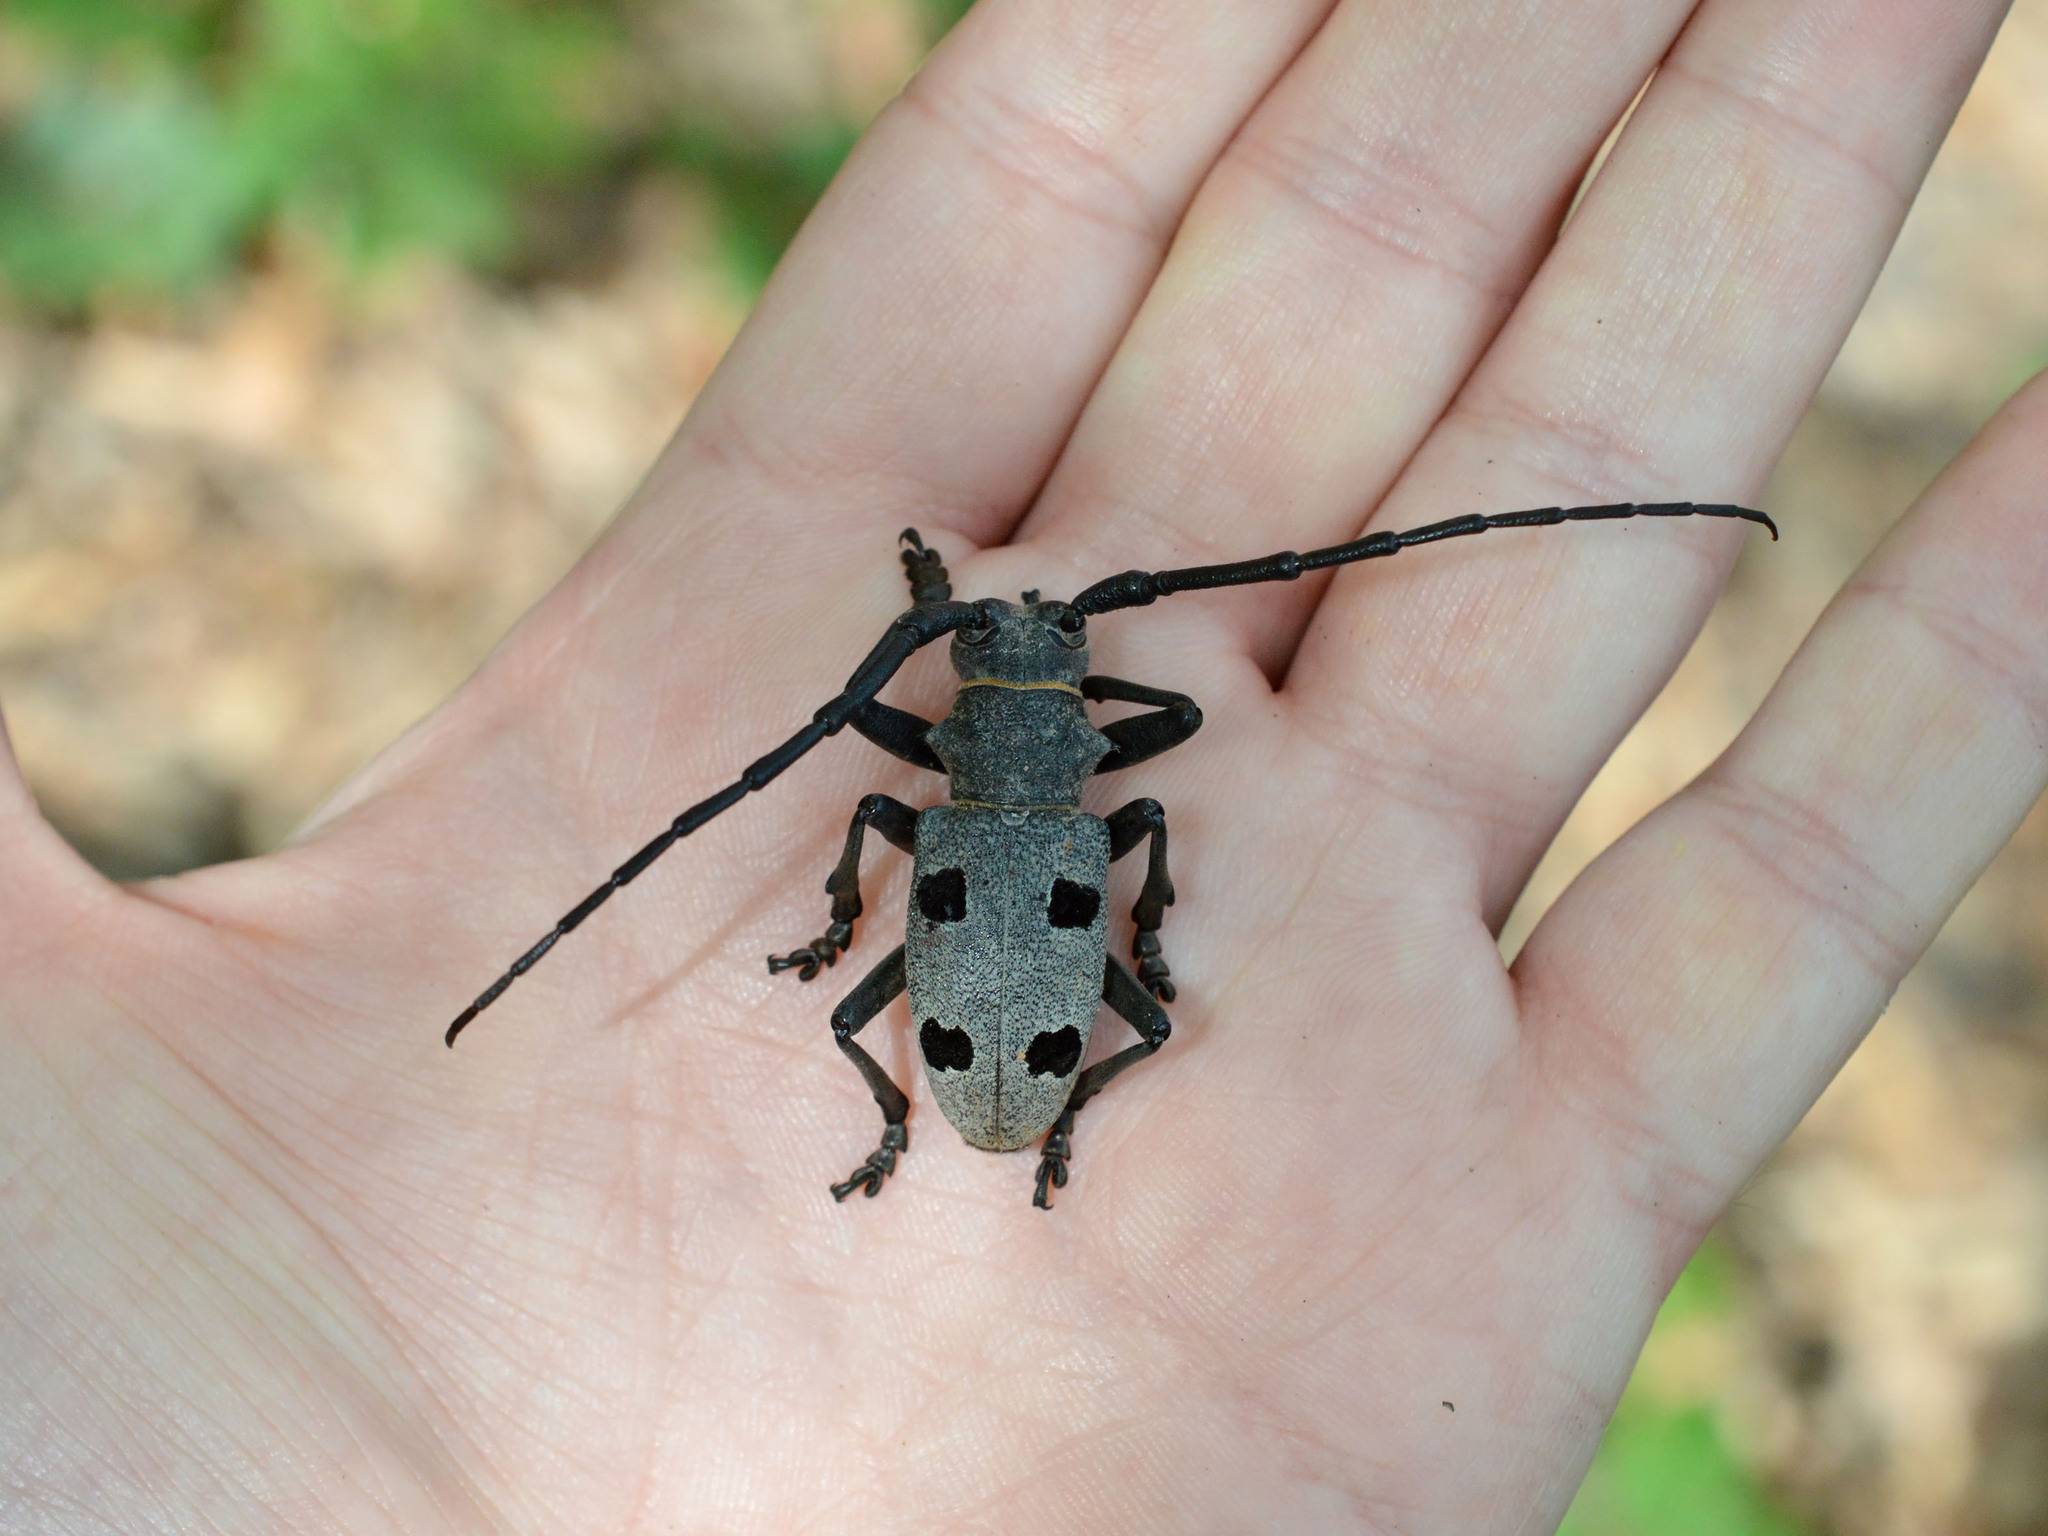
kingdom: Animalia
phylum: Arthropoda
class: Insecta
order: Coleoptera
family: Cerambycidae
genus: Morimus
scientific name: Morimus funereus
